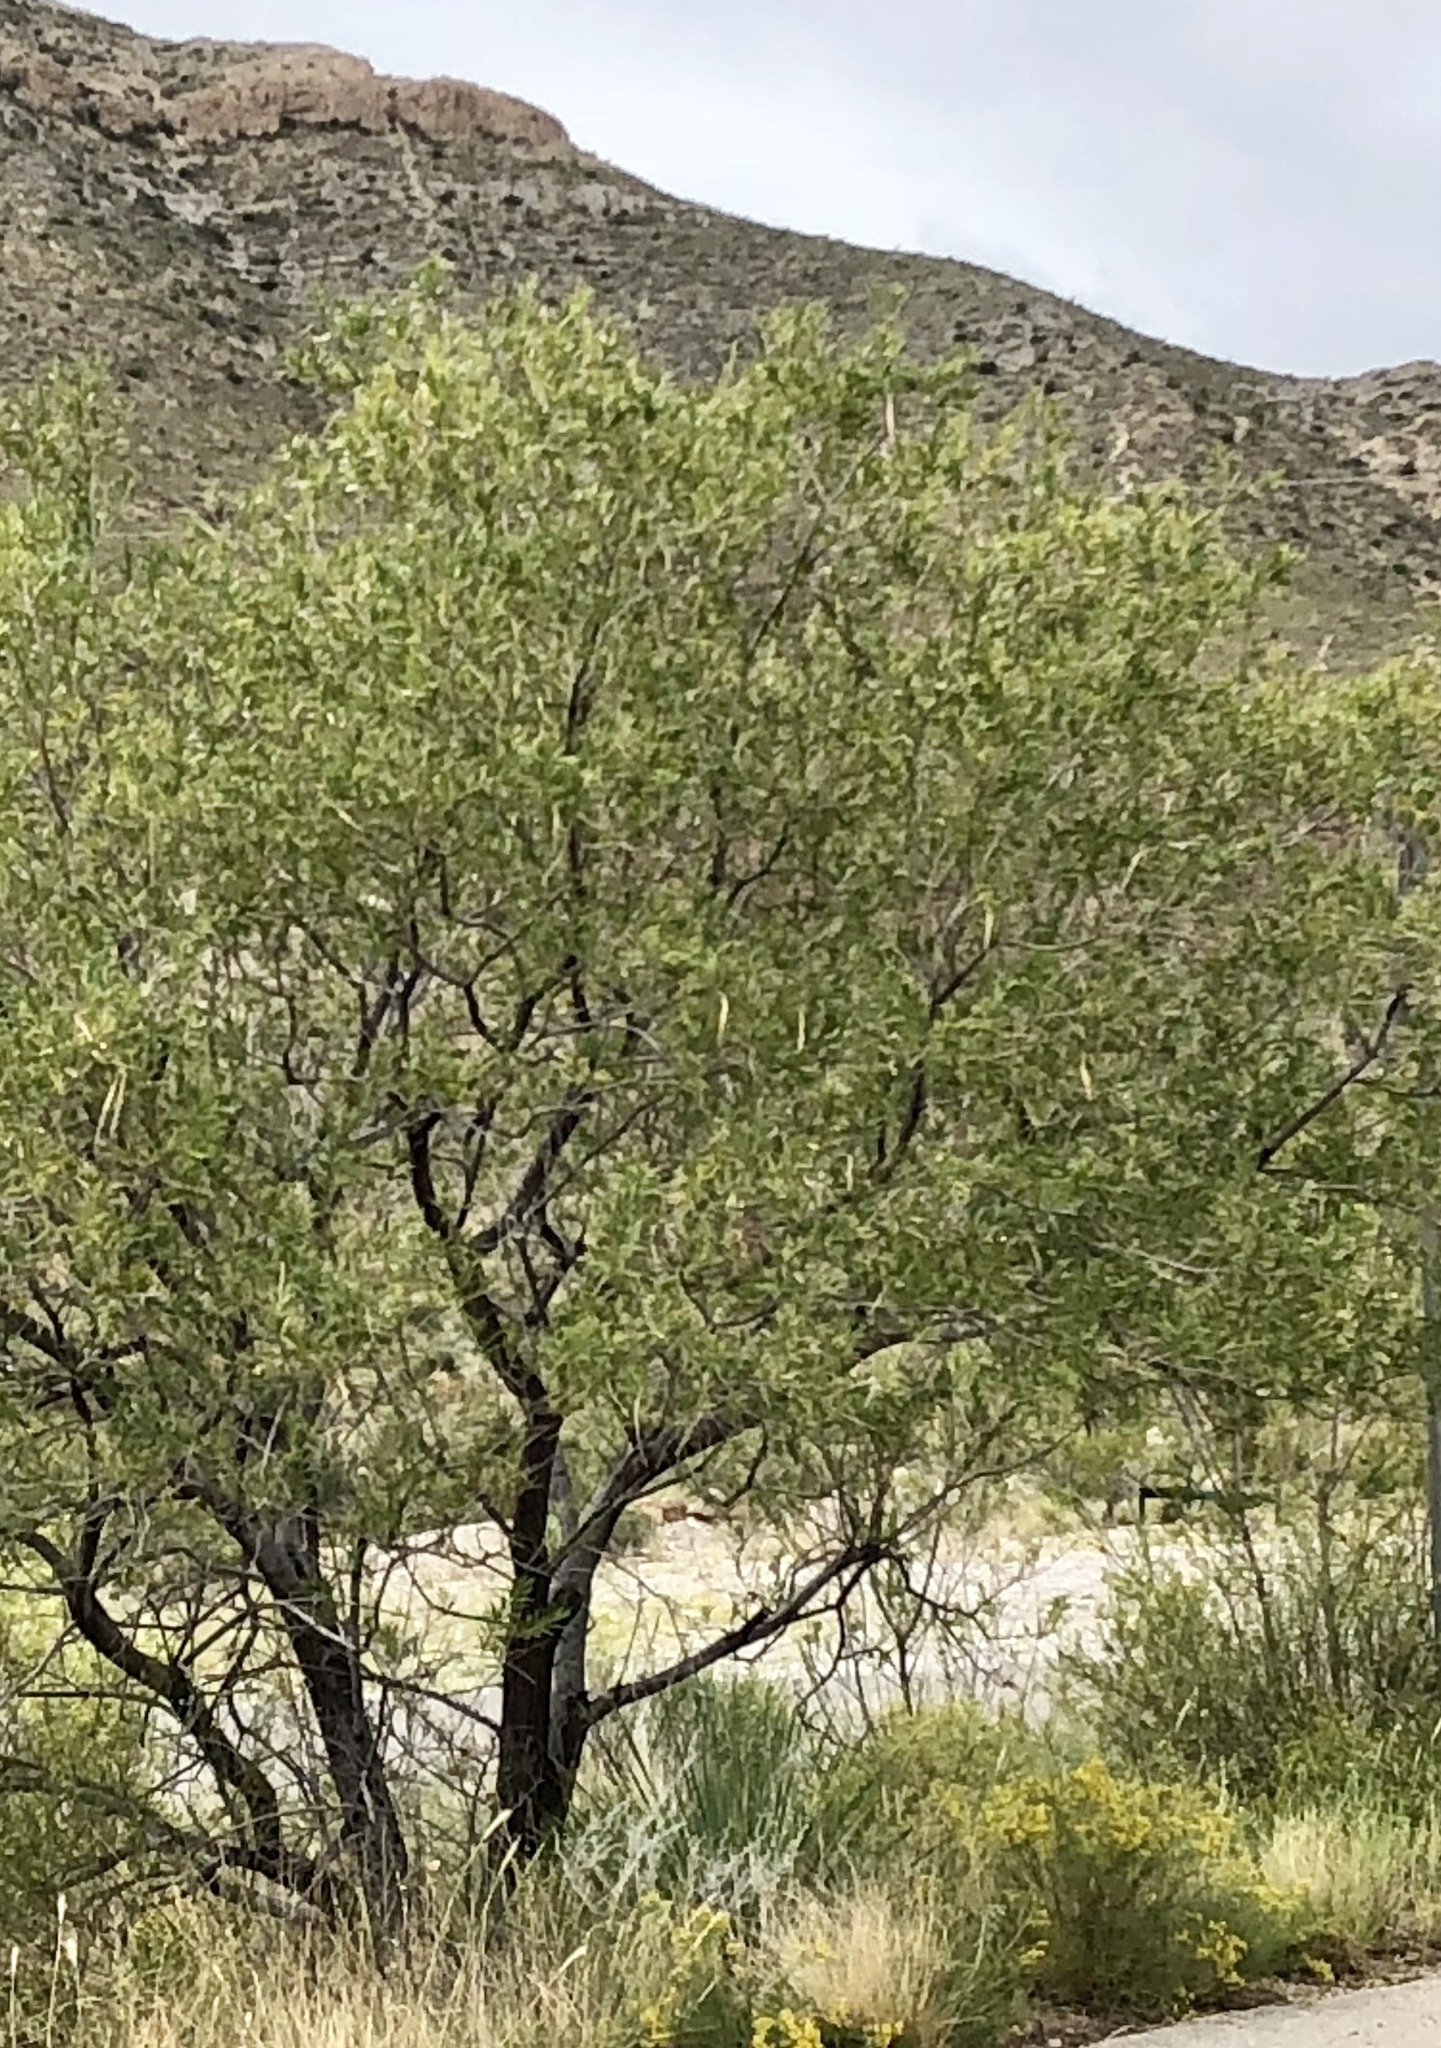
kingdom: Plantae
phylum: Tracheophyta
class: Magnoliopsida
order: Lamiales
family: Bignoniaceae
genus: Chilopsis
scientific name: Chilopsis linearis
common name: Desert-willow
